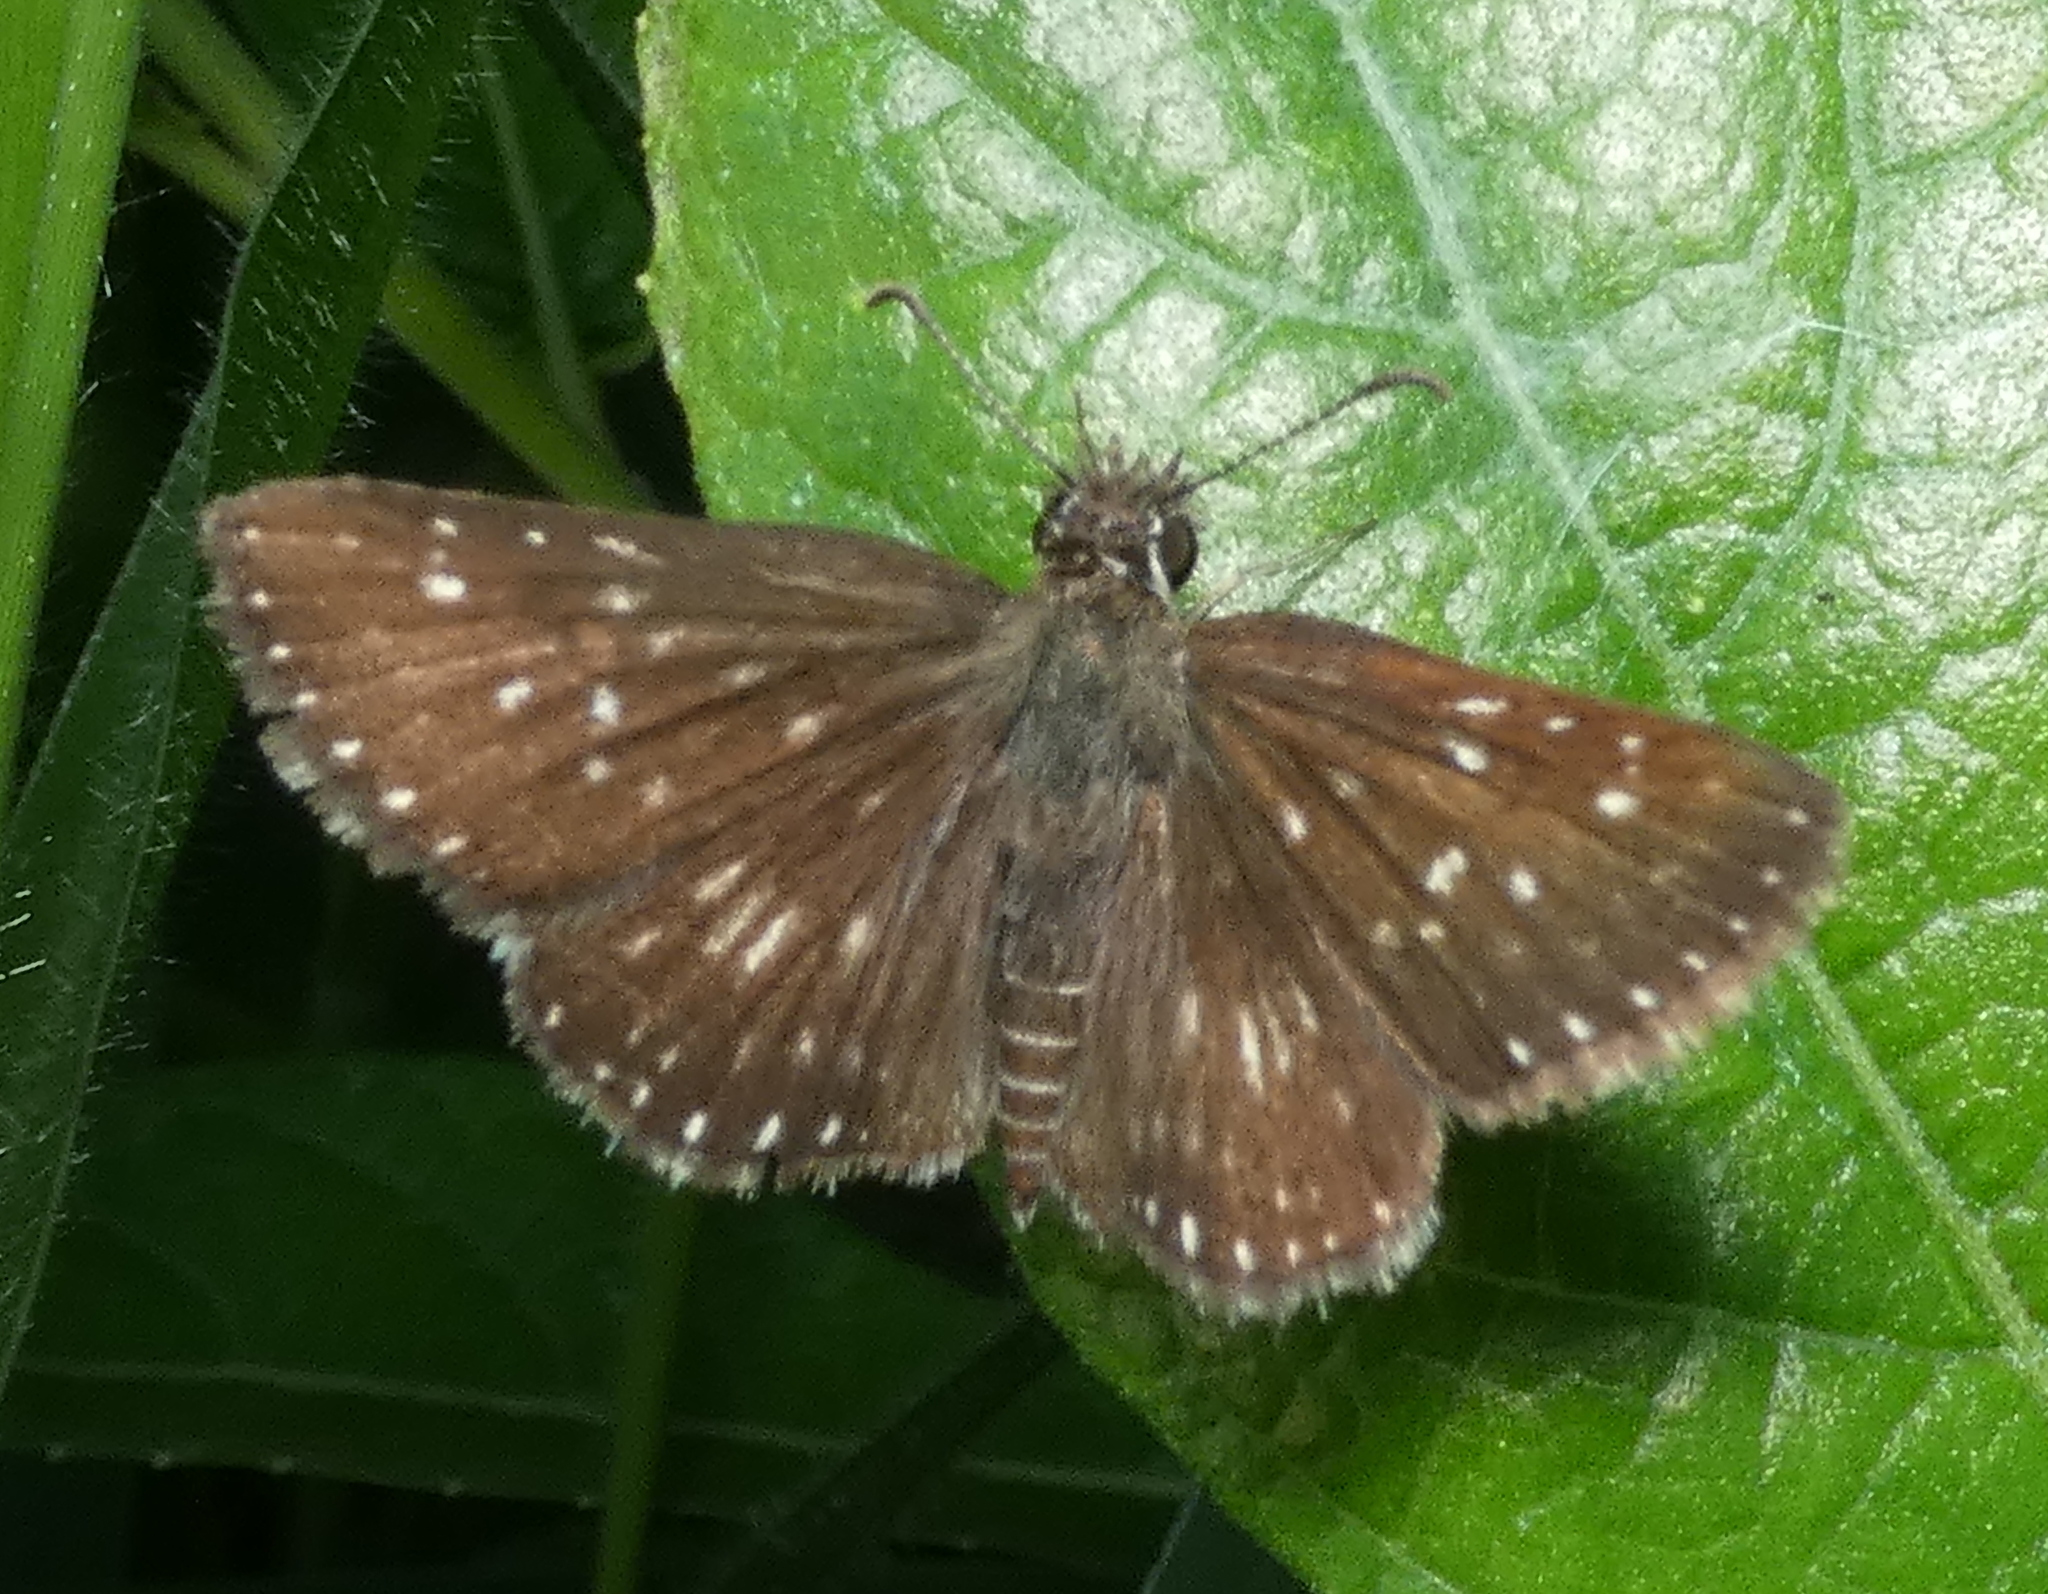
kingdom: Animalia
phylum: Arthropoda
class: Insecta
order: Lepidoptera
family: Hesperiidae
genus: Pyrgus
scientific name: Pyrgus oileus
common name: Tropical checkered-skipper
